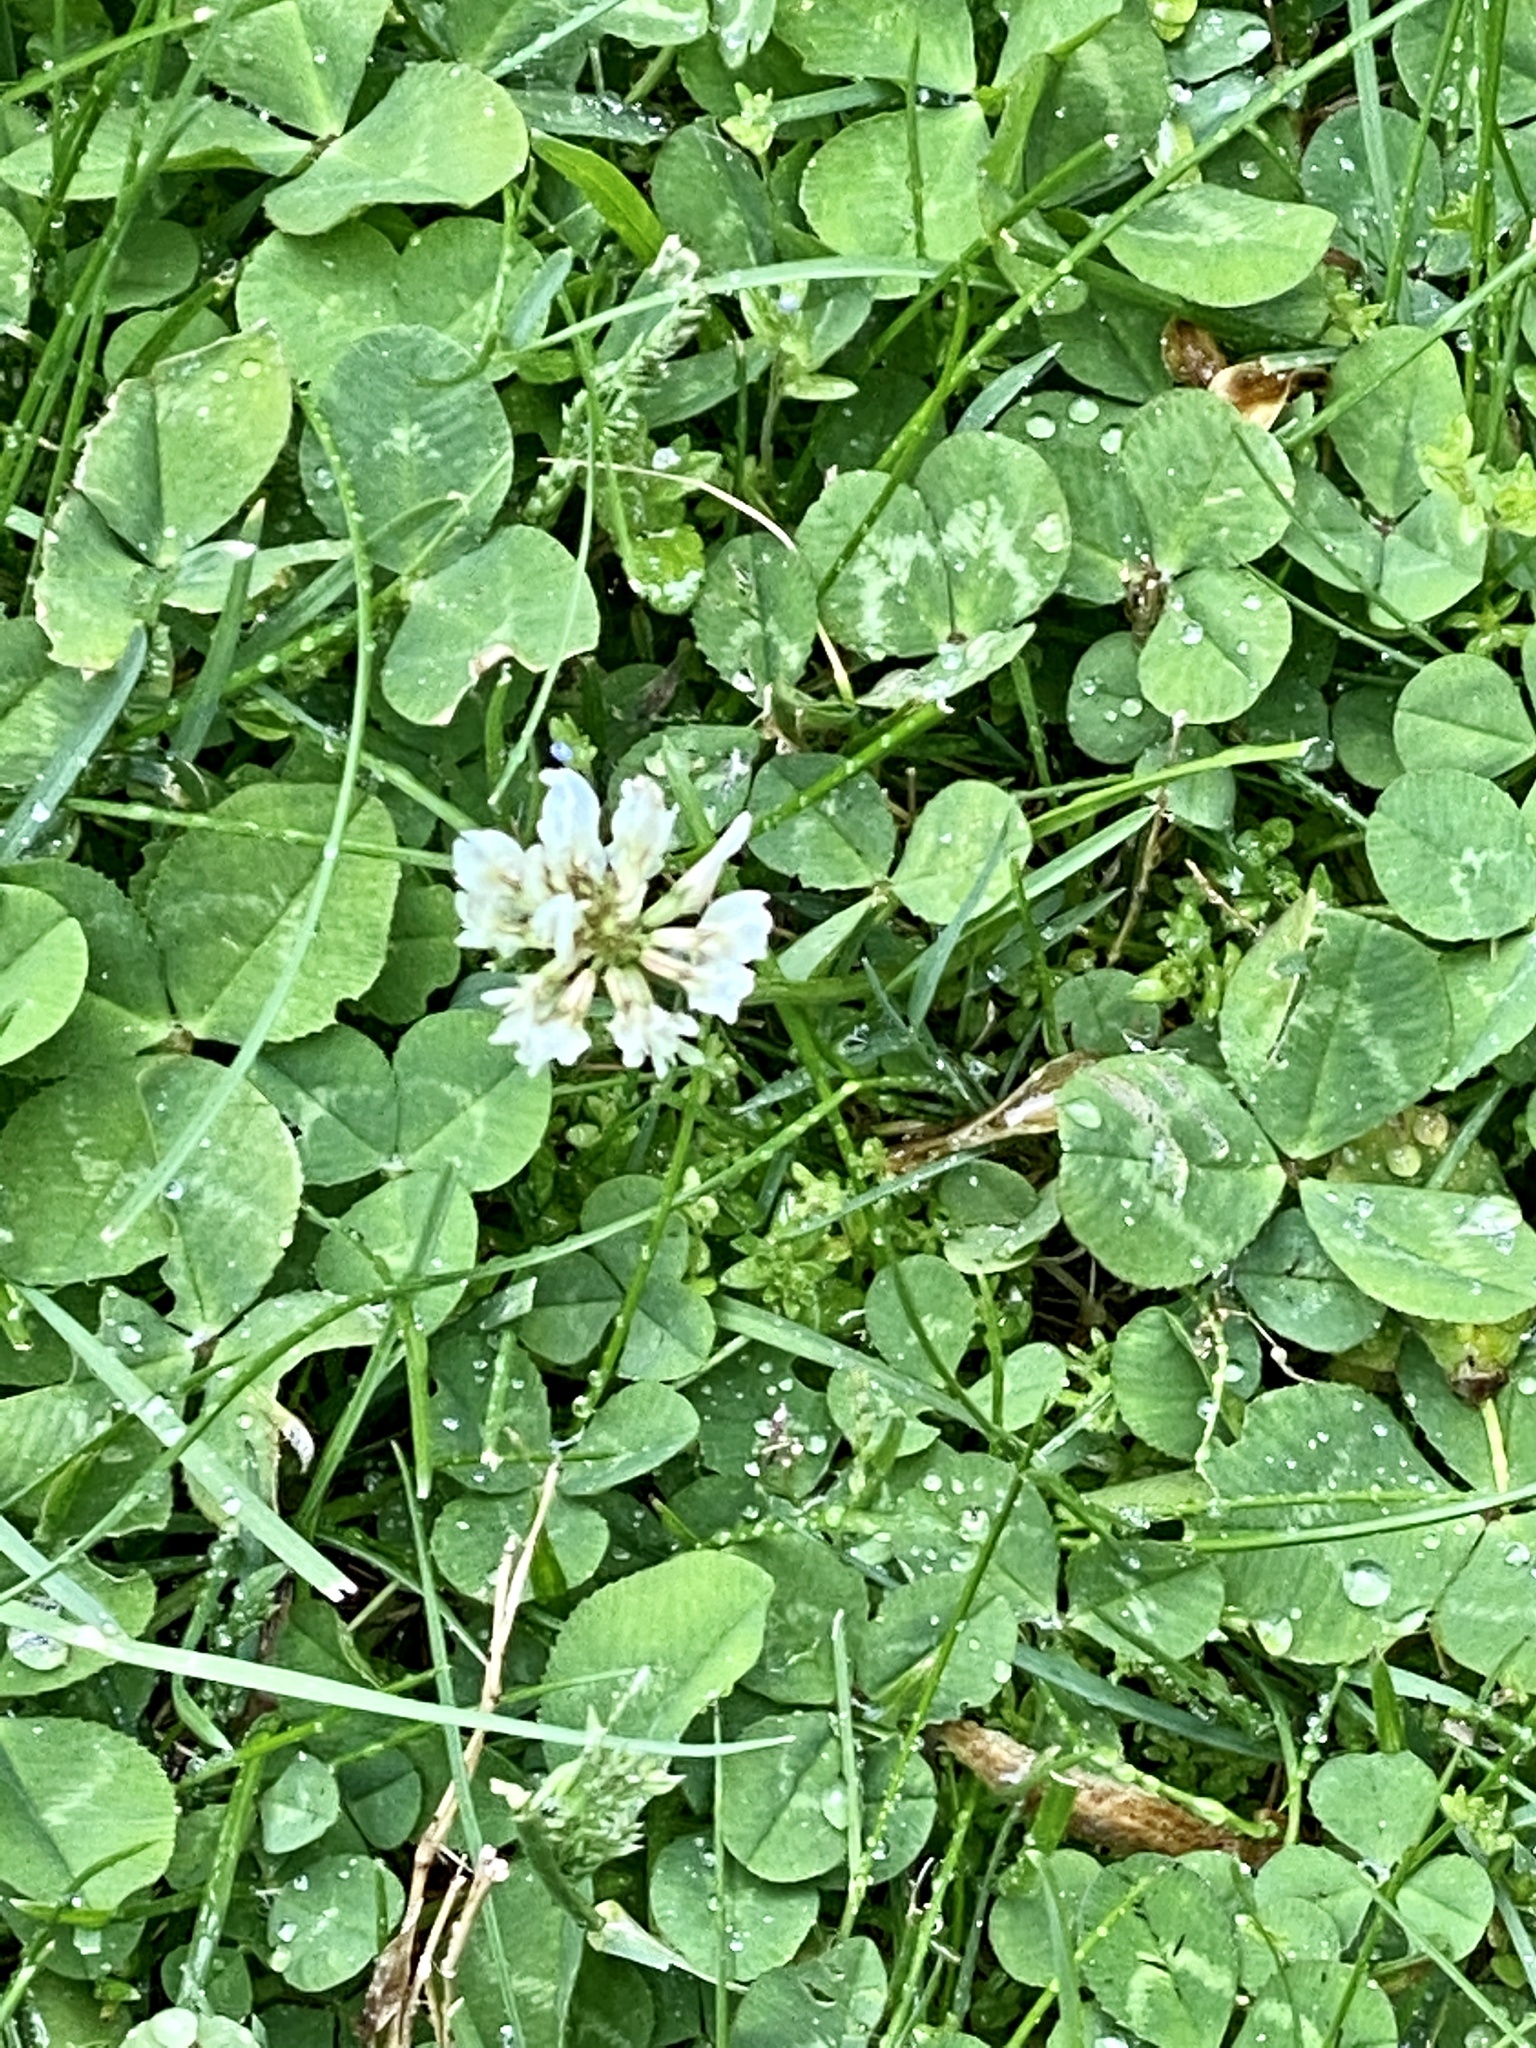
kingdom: Plantae
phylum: Tracheophyta
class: Magnoliopsida
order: Fabales
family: Fabaceae
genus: Trifolium
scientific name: Trifolium repens
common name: White clover
